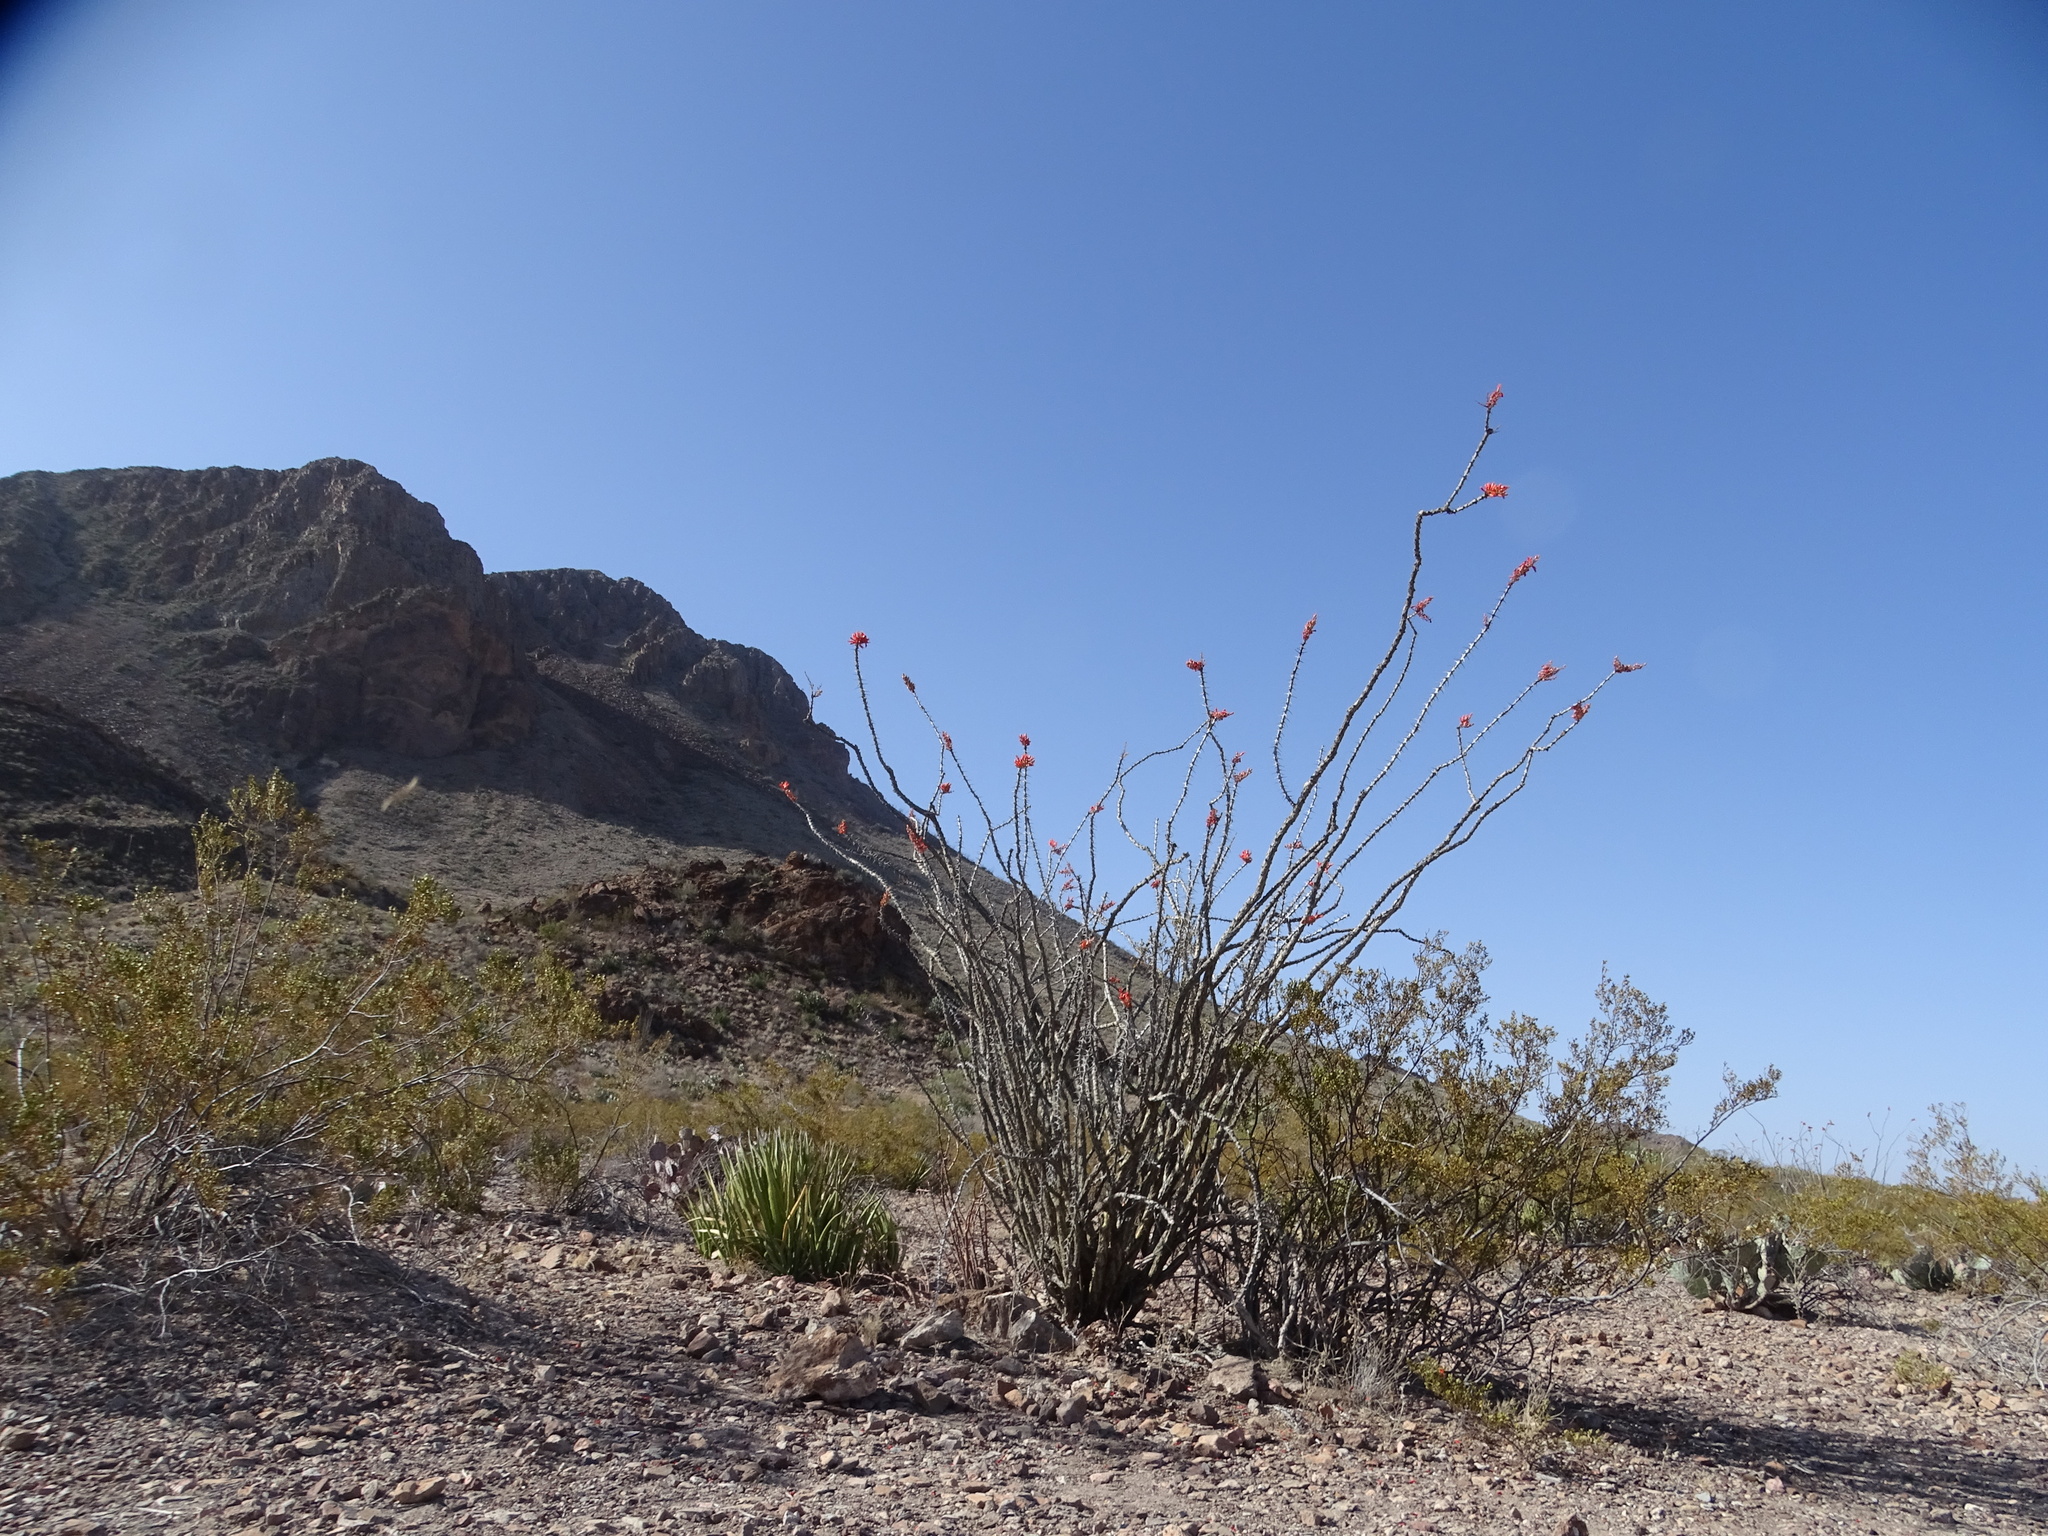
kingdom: Plantae
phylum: Tracheophyta
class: Magnoliopsida
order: Ericales
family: Fouquieriaceae
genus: Fouquieria
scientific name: Fouquieria splendens
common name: Vine-cactus
